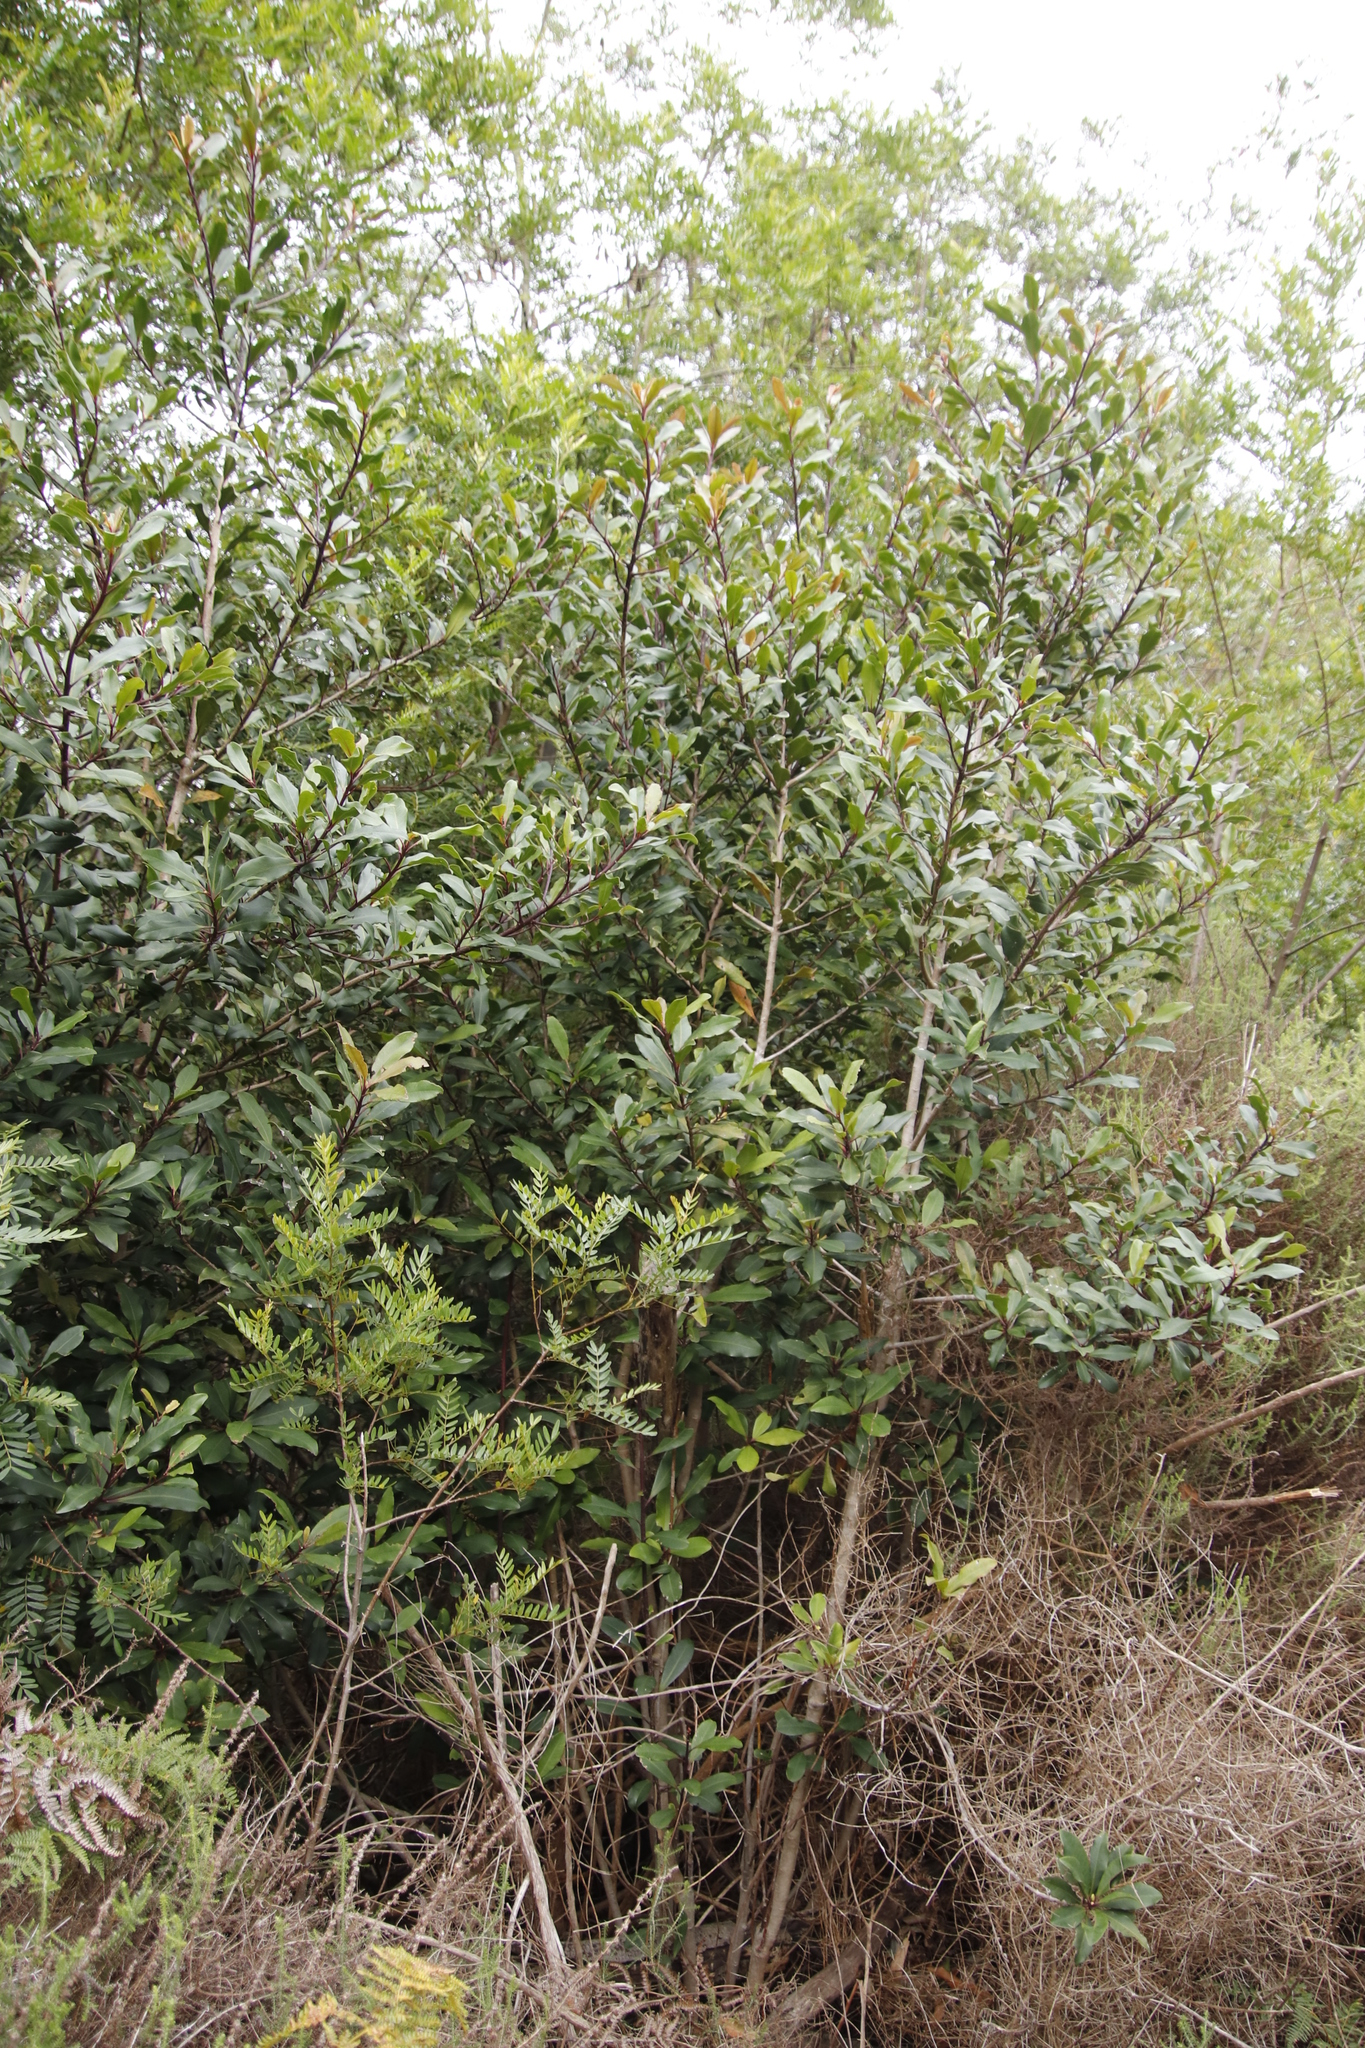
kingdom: Plantae
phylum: Tracheophyta
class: Magnoliopsida
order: Ericales
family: Primulaceae
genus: Myrsine
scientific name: Myrsine melanophloeos
